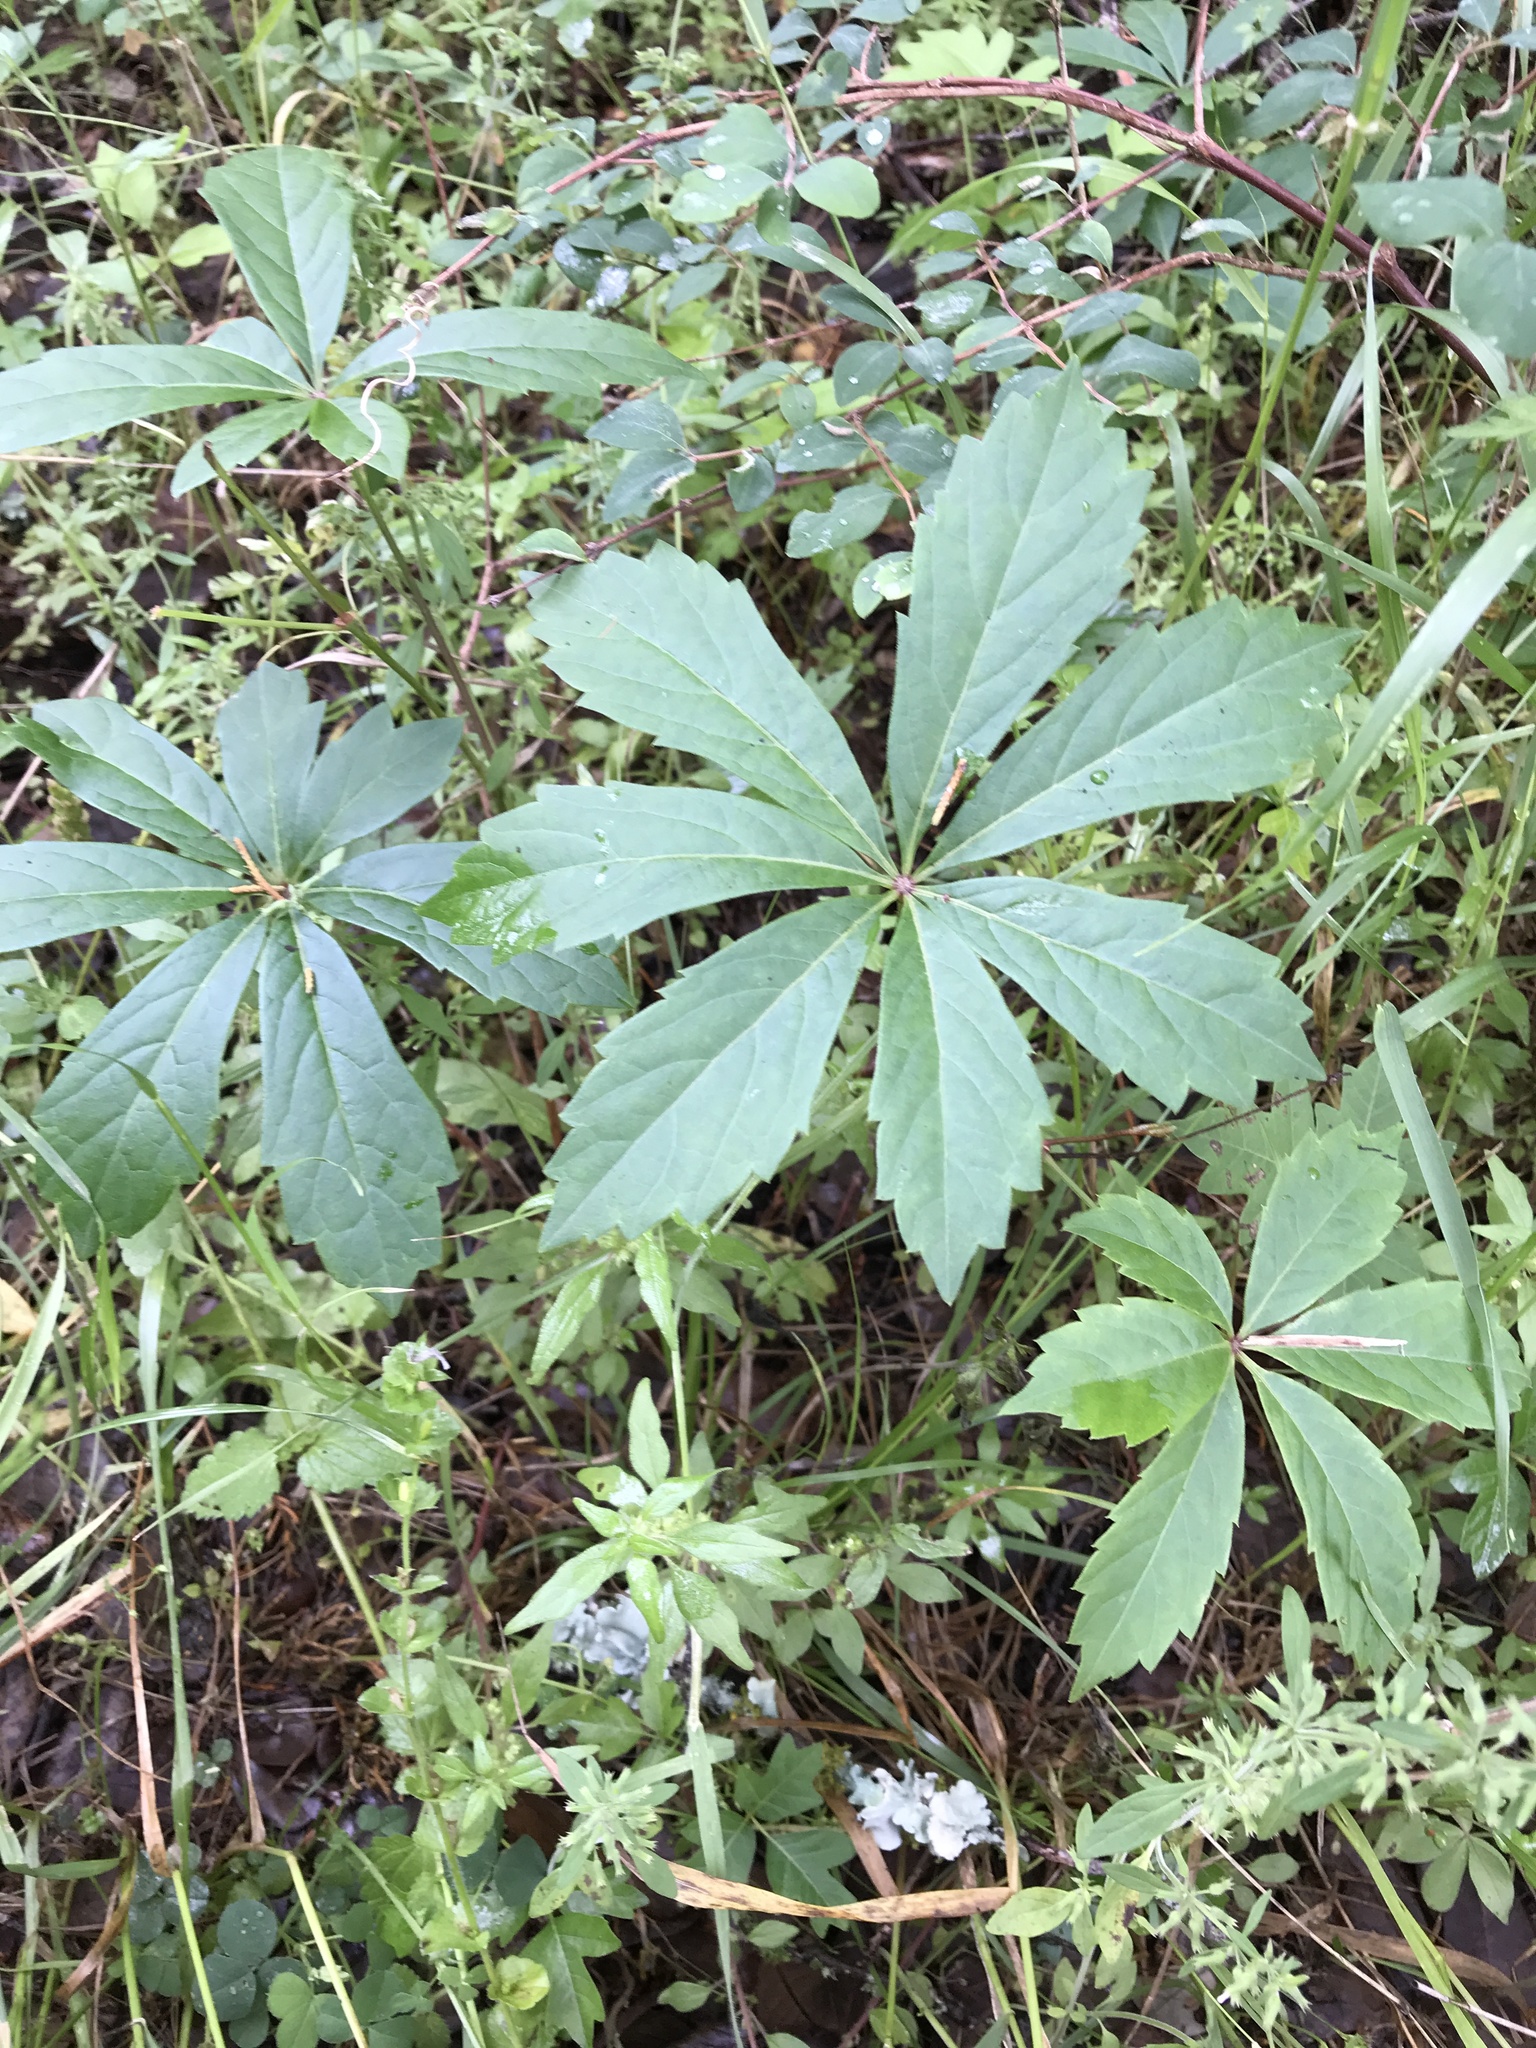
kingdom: Plantae
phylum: Tracheophyta
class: Magnoliopsida
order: Vitales
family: Vitaceae
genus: Parthenocissus
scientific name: Parthenocissus heptaphylla
